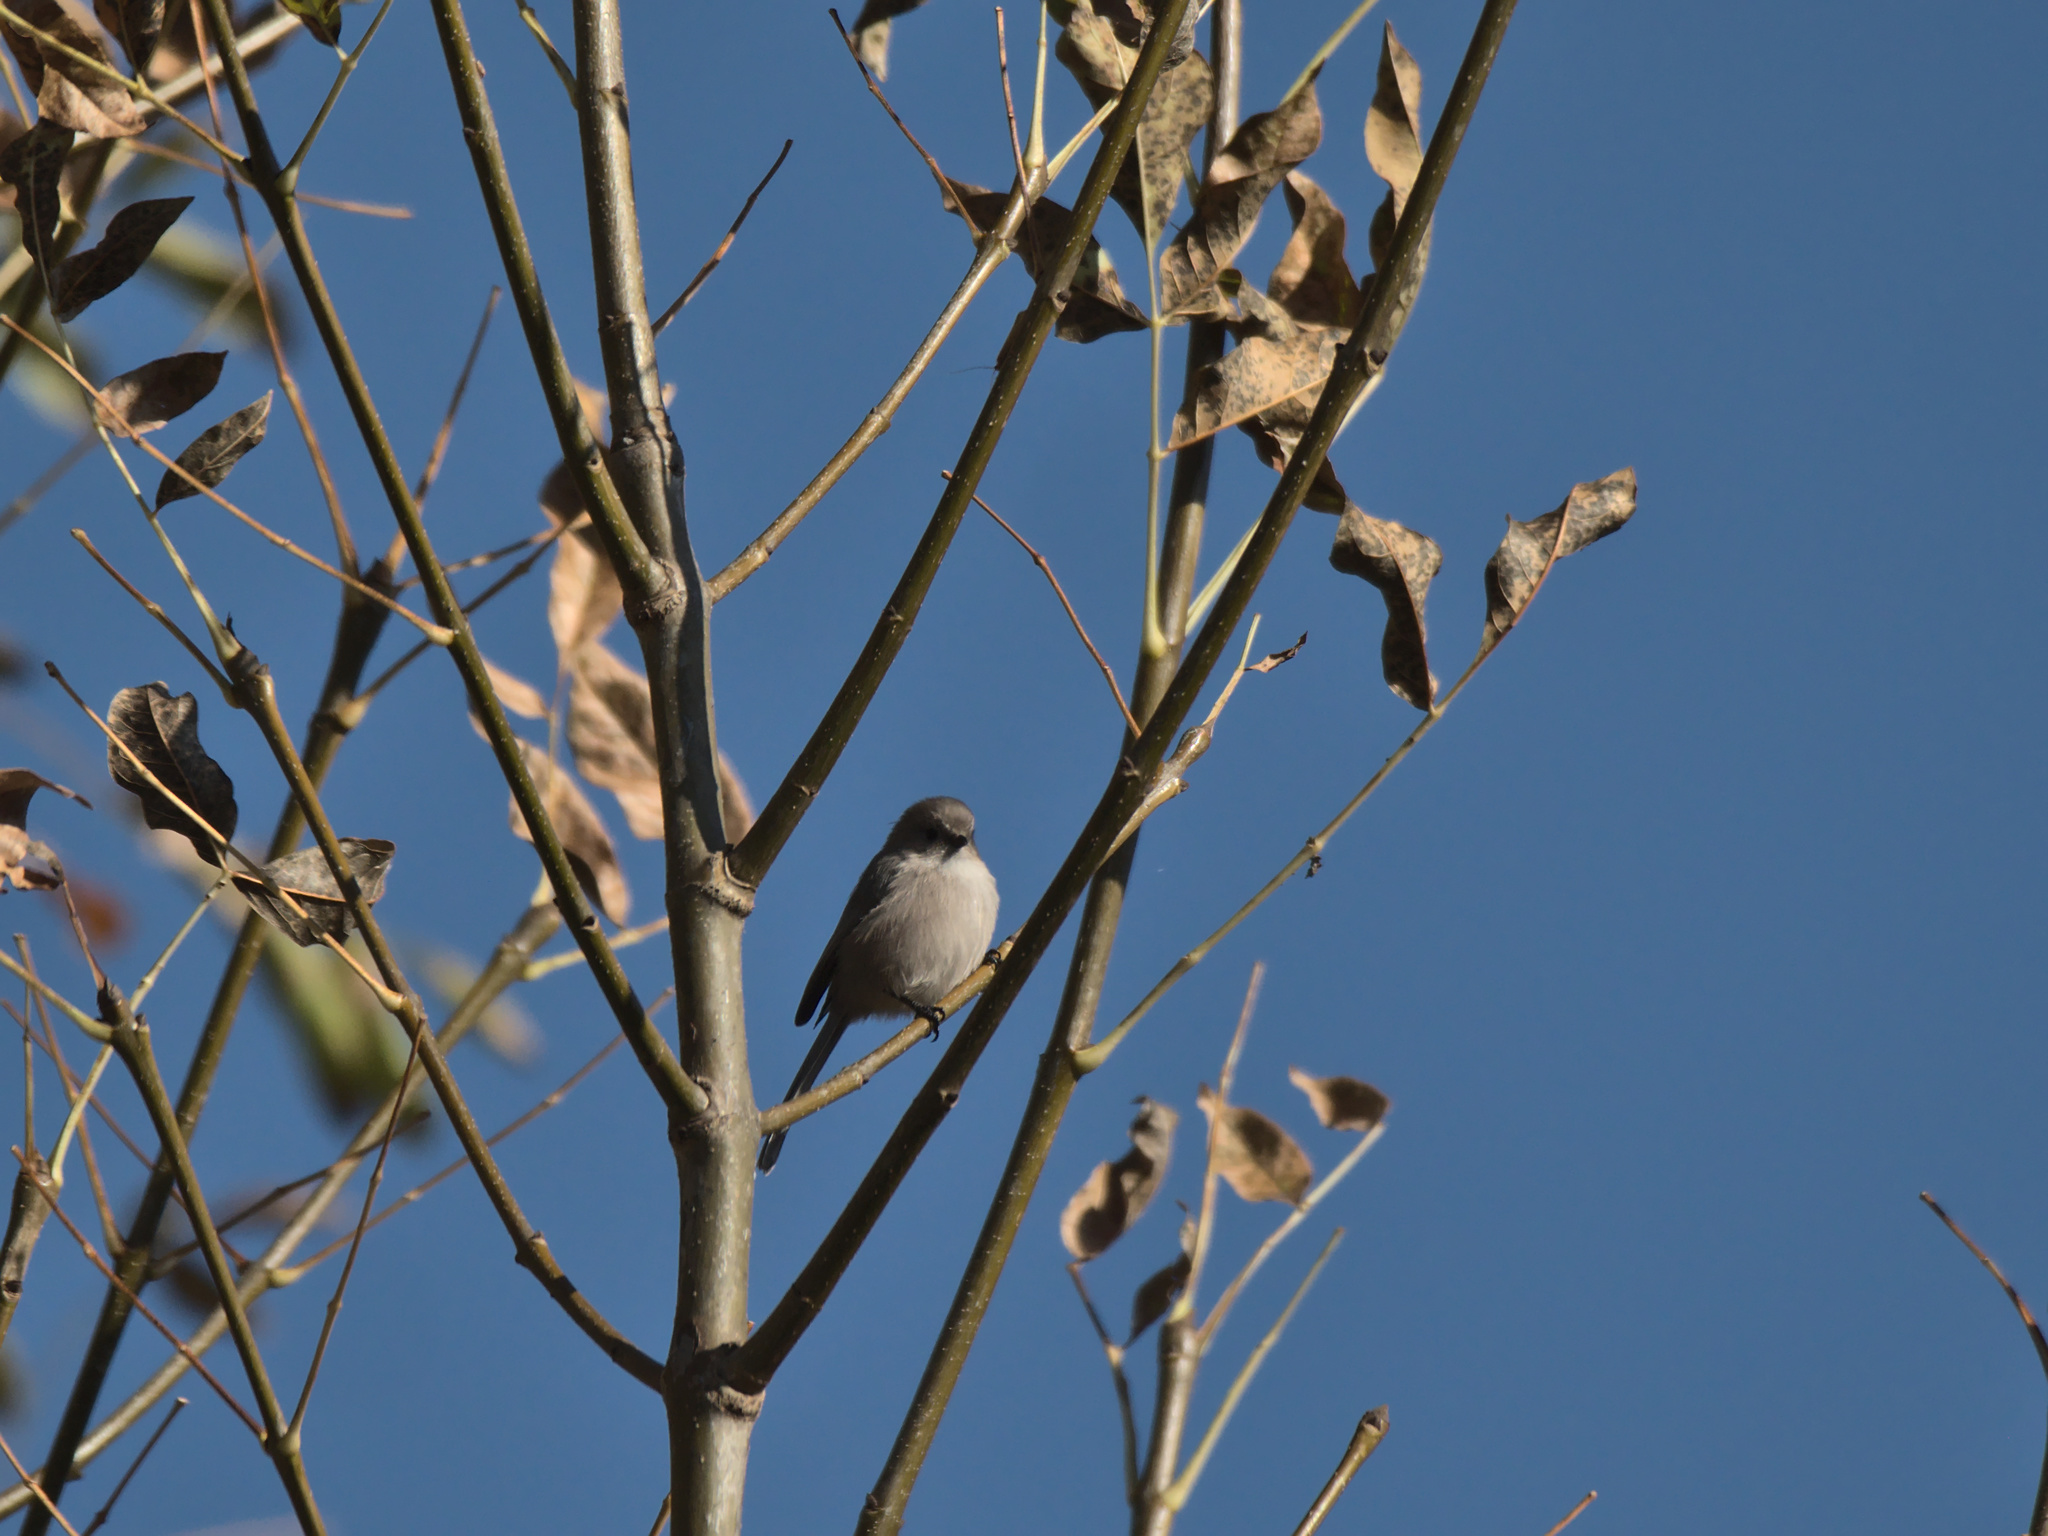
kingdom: Animalia
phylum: Chordata
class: Aves
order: Passeriformes
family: Aegithalidae
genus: Psaltriparus
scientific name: Psaltriparus minimus
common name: American bushtit
